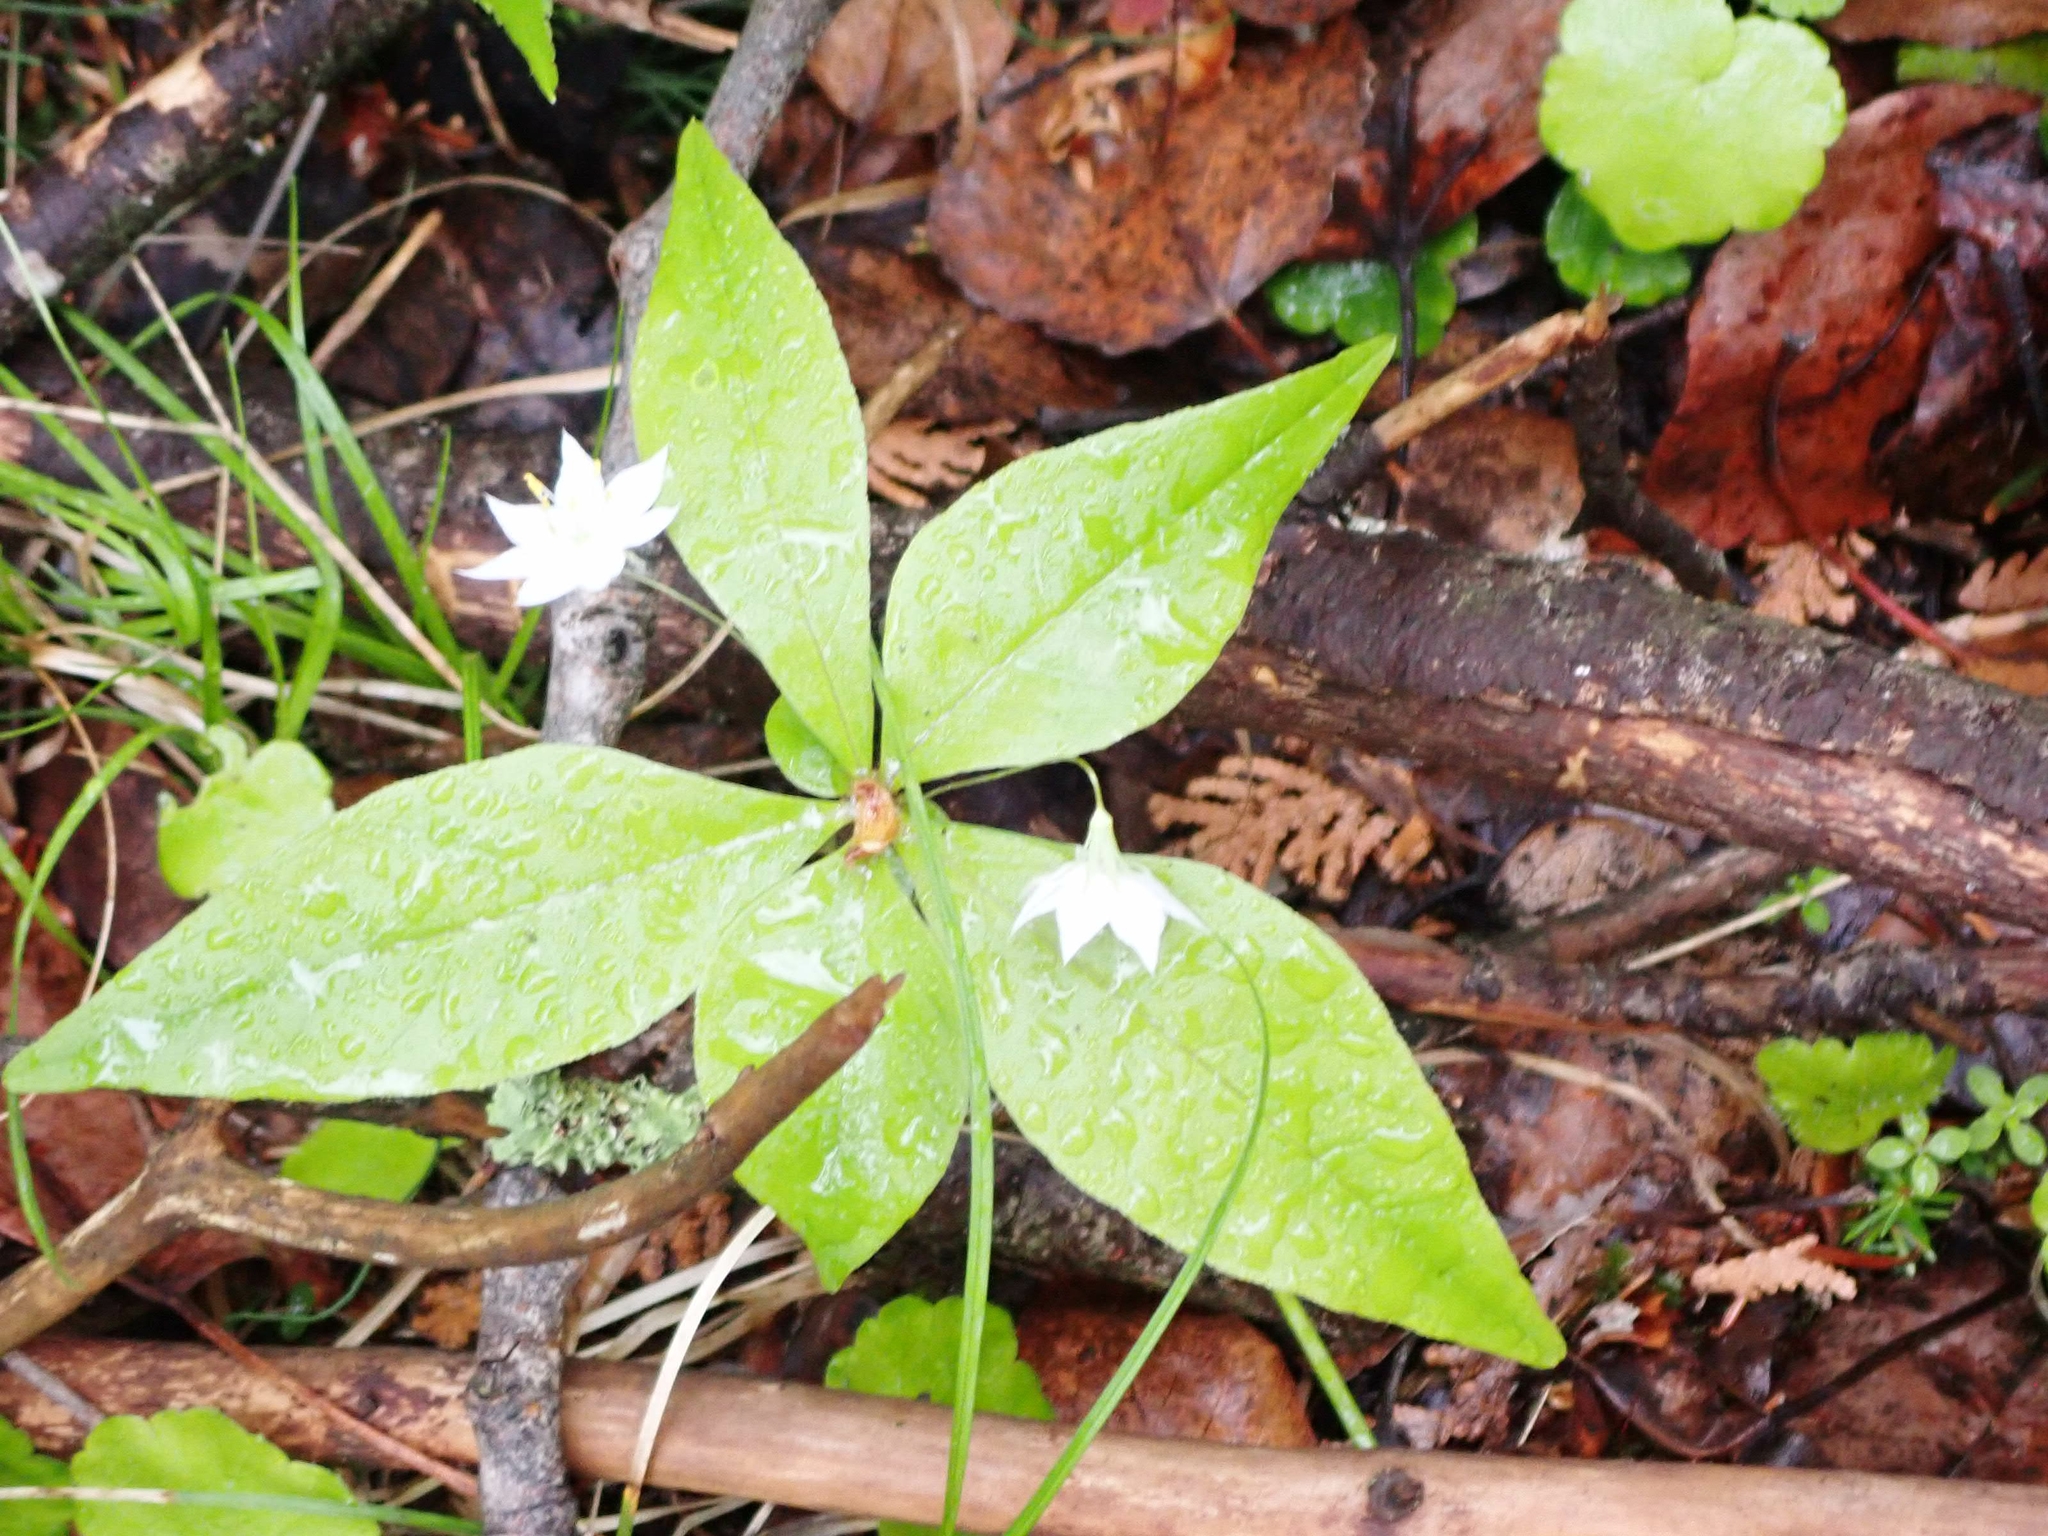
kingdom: Plantae
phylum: Tracheophyta
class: Magnoliopsida
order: Ericales
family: Primulaceae
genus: Lysimachia
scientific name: Lysimachia borealis
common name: American starflower
